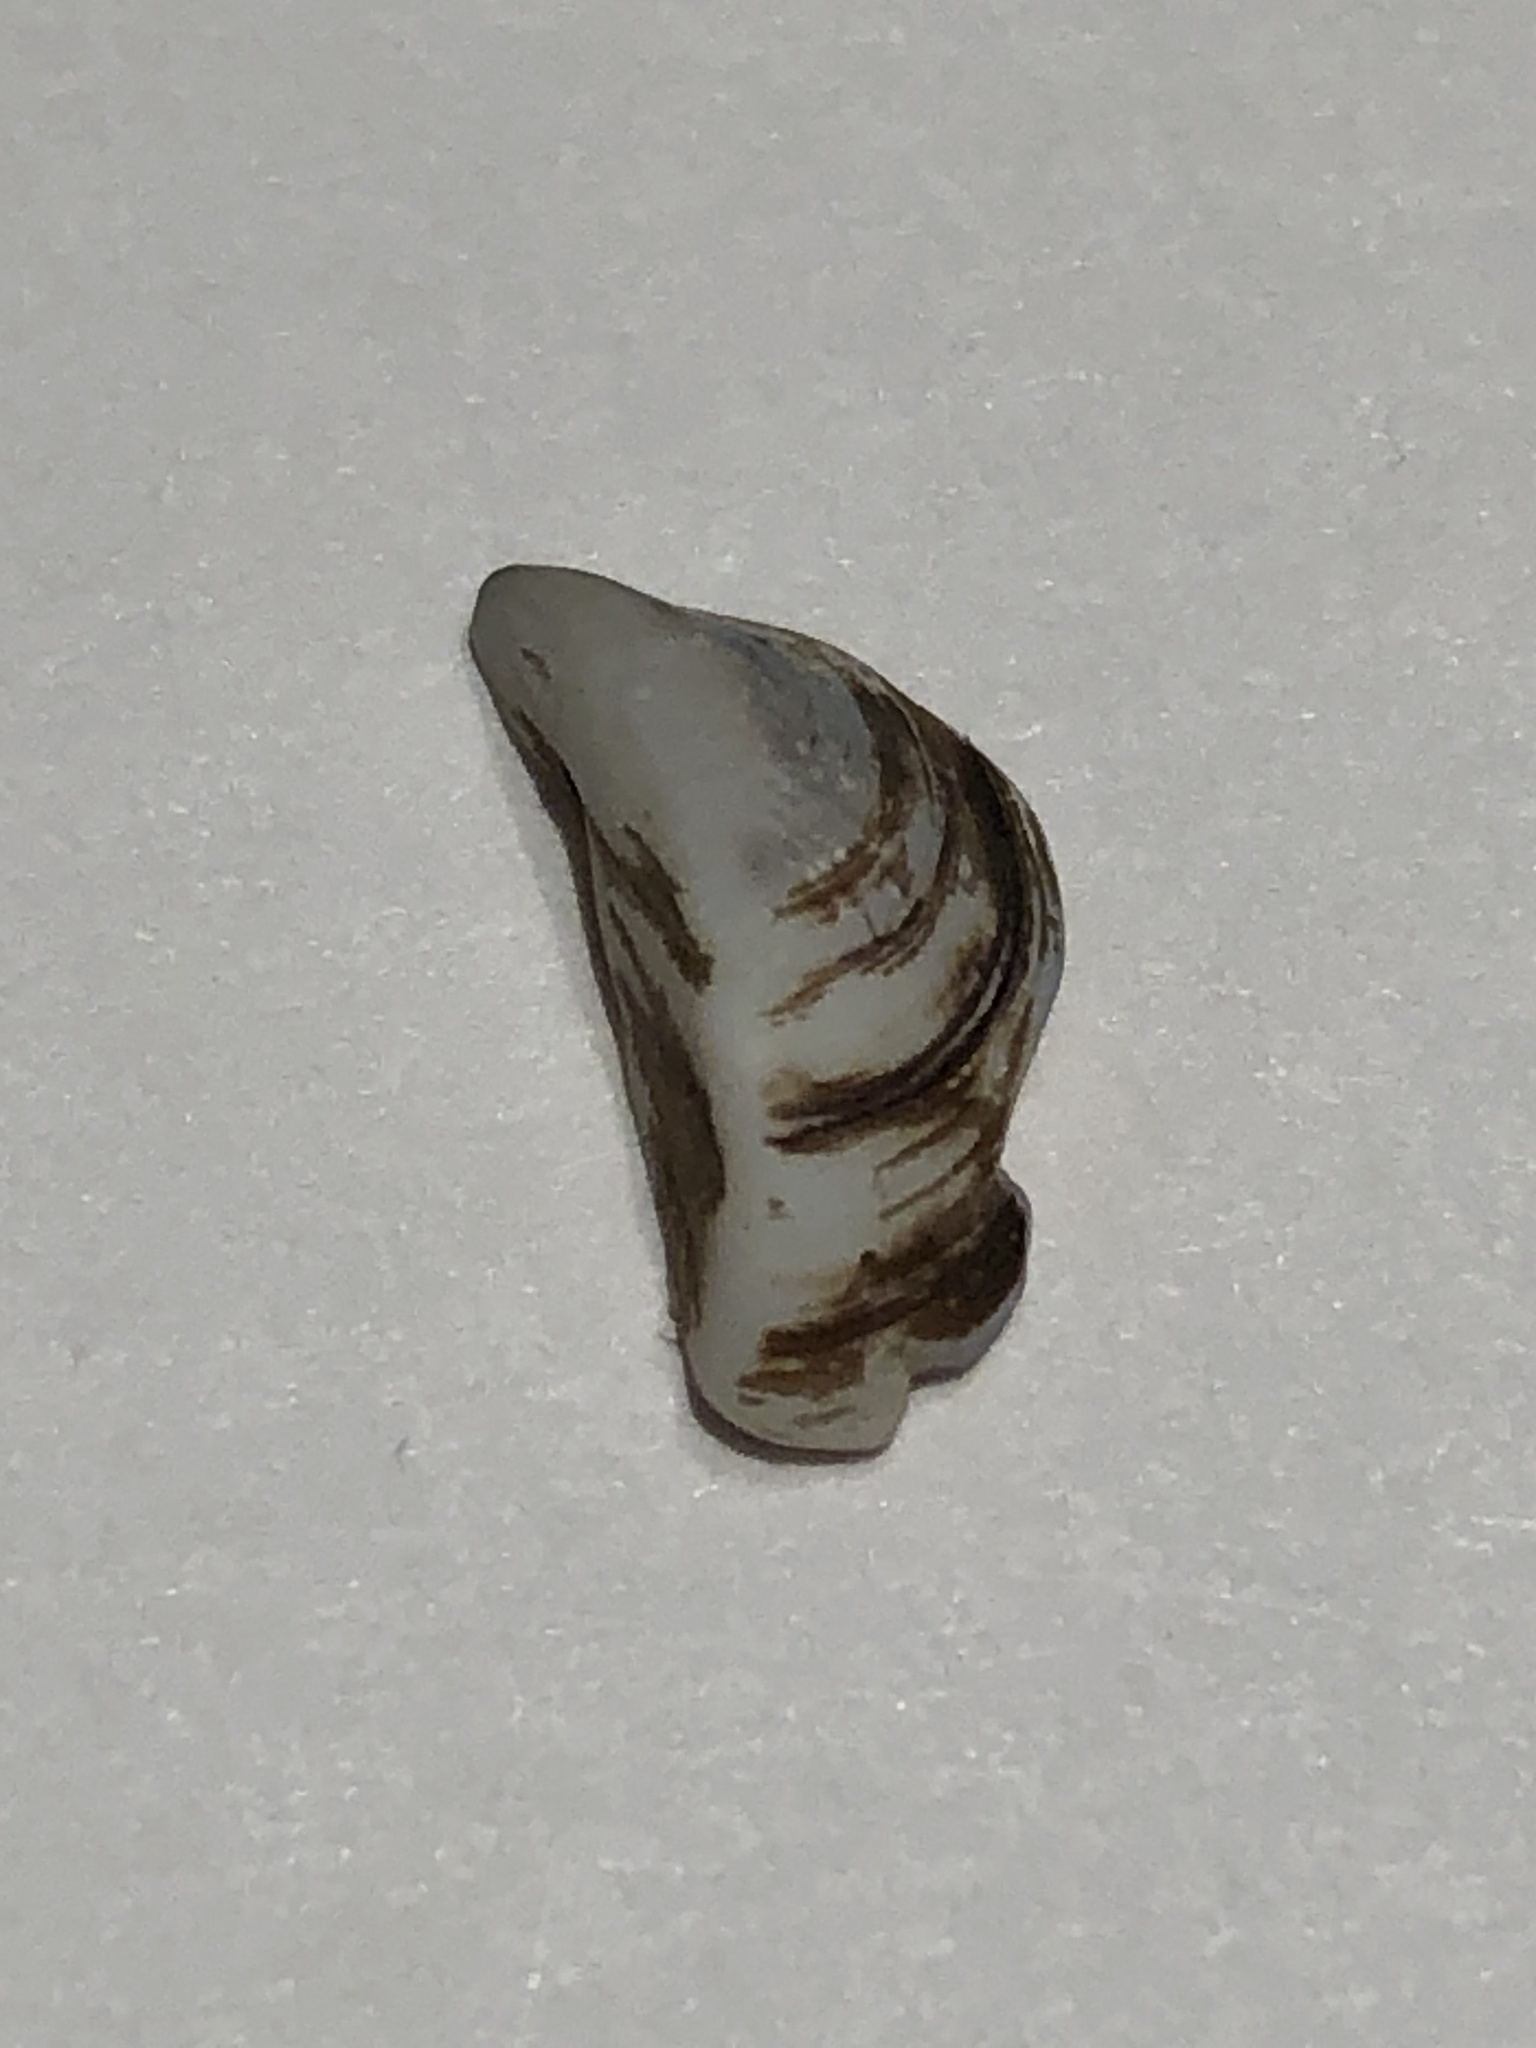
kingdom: Animalia
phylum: Mollusca
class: Bivalvia
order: Myida
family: Dreissenidae
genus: Dreissena
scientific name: Dreissena polymorpha
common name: Zebra mussel
